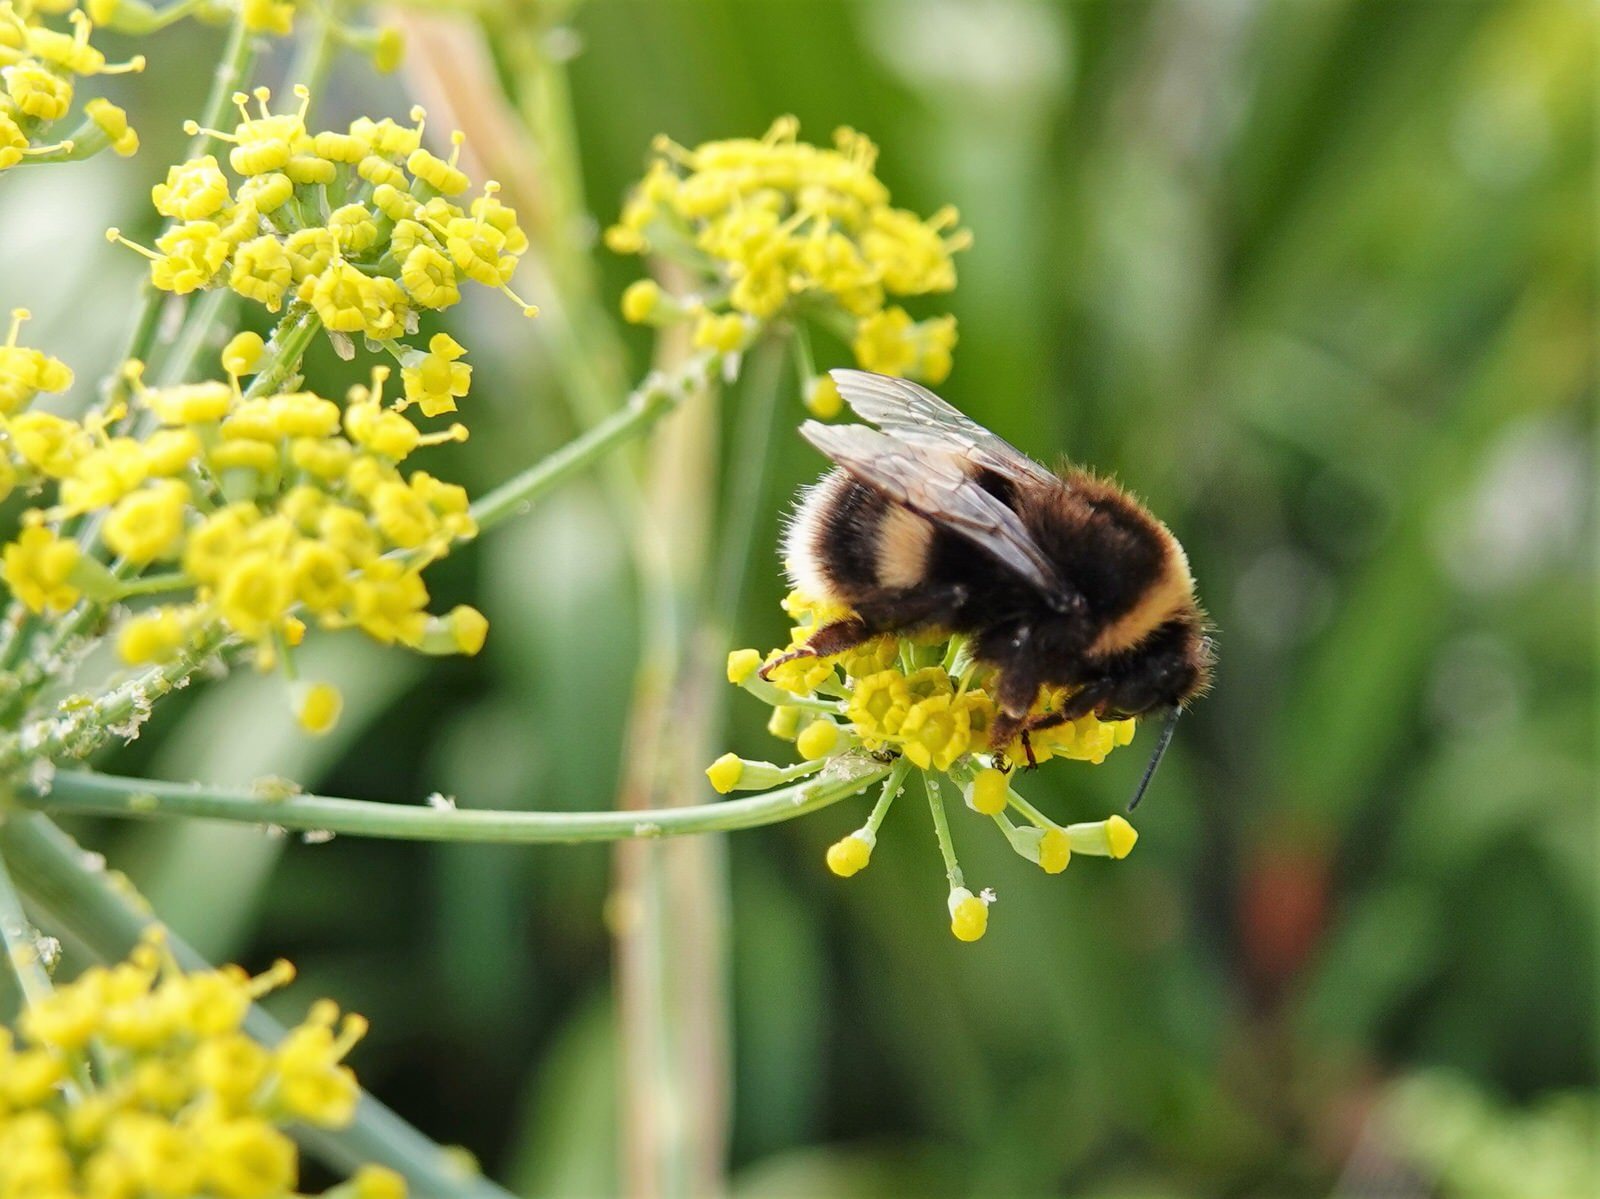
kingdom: Animalia
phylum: Arthropoda
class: Insecta
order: Hymenoptera
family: Apidae
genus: Bombus
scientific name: Bombus terrestris
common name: Buff-tailed bumblebee
